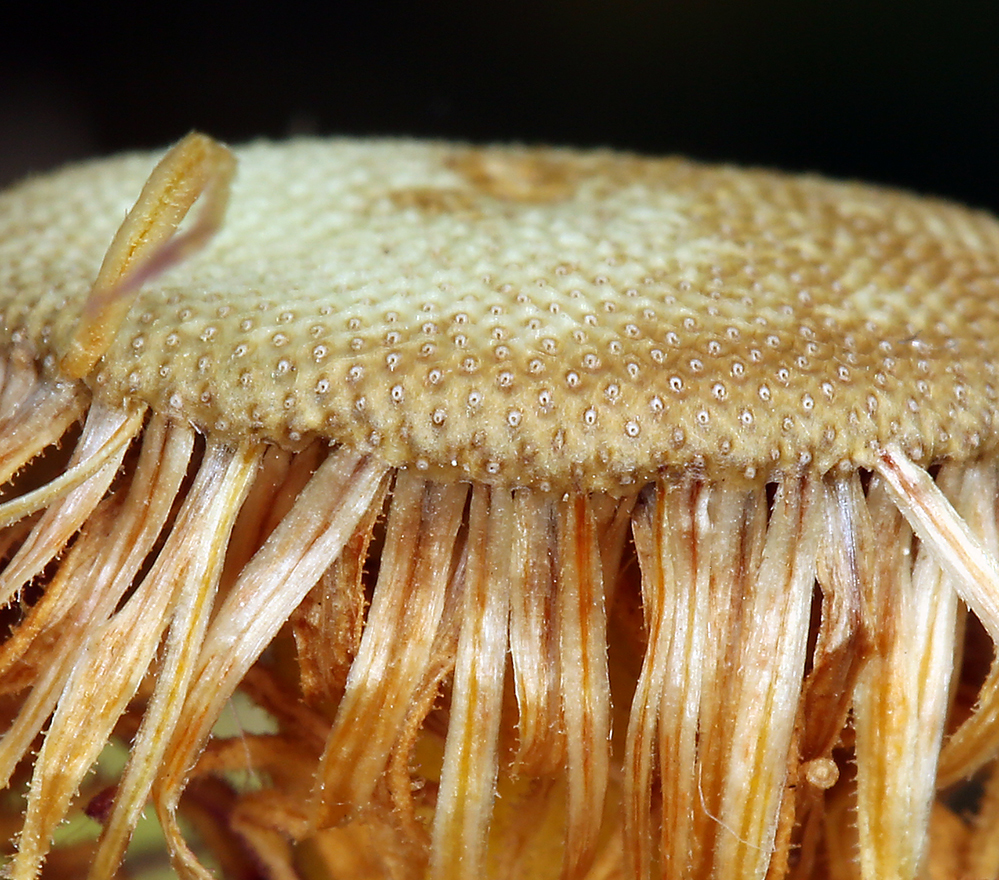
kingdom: Plantae
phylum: Tracheophyta
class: Magnoliopsida
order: Asterales
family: Asteraceae
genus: Erigeron
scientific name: Erigeron glaucus
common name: Seaside daisy
